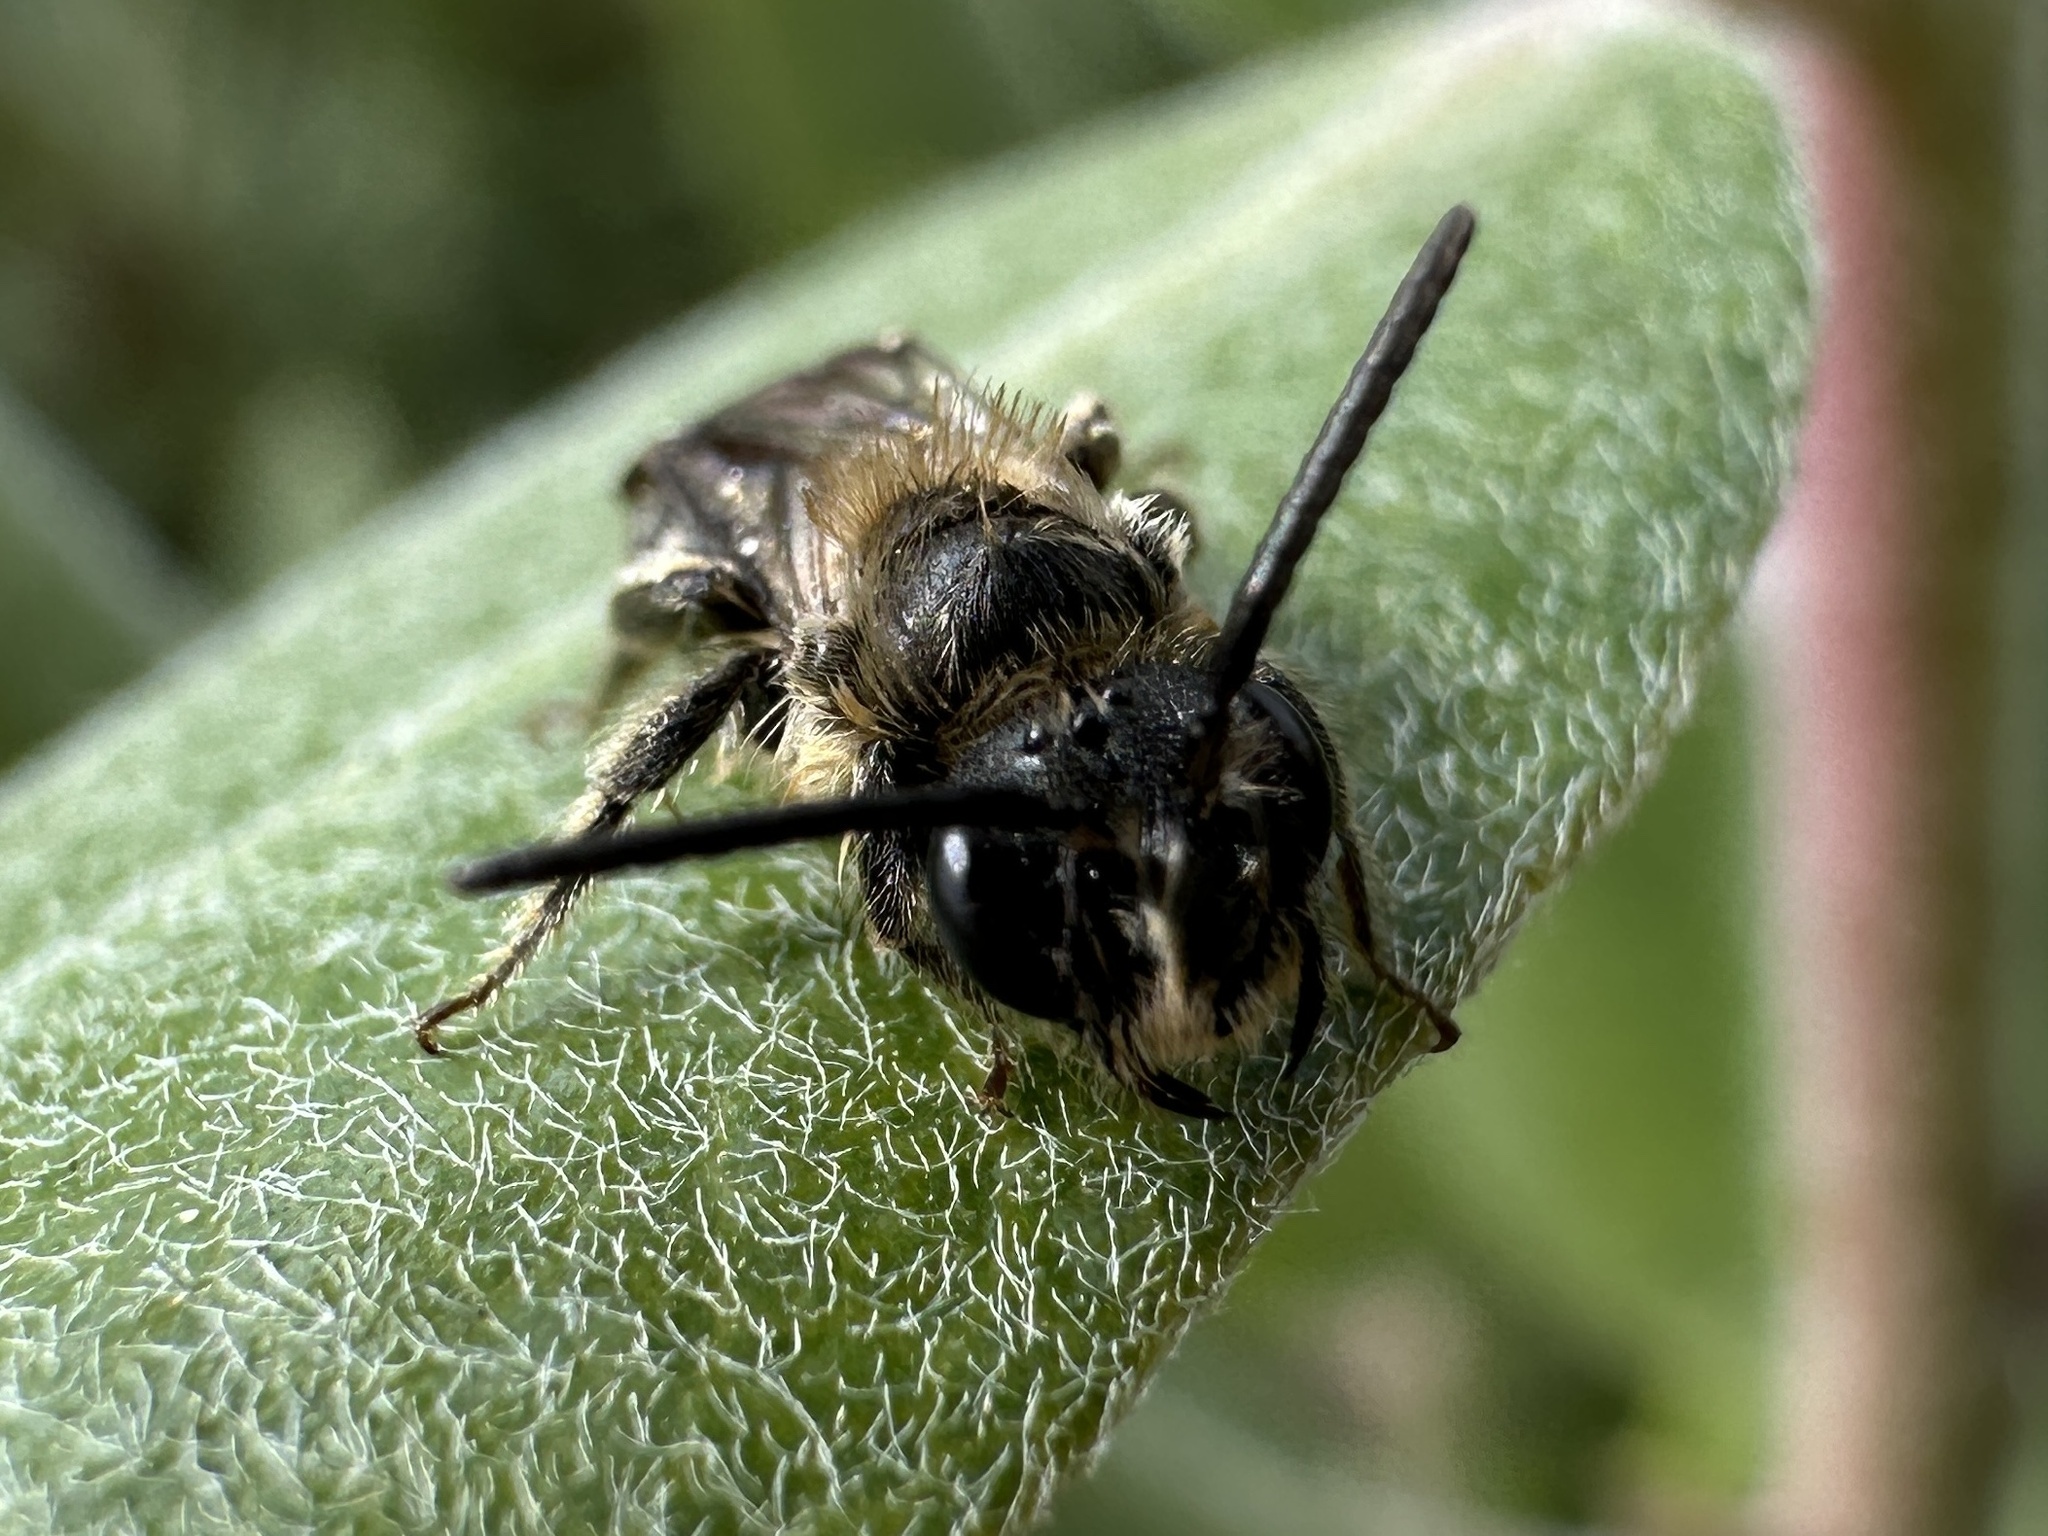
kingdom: Animalia
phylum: Arthropoda
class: Insecta
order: Hymenoptera
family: Andrenidae
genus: Andrena
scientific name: Andrena miserabilis
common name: Miserable mining bee
